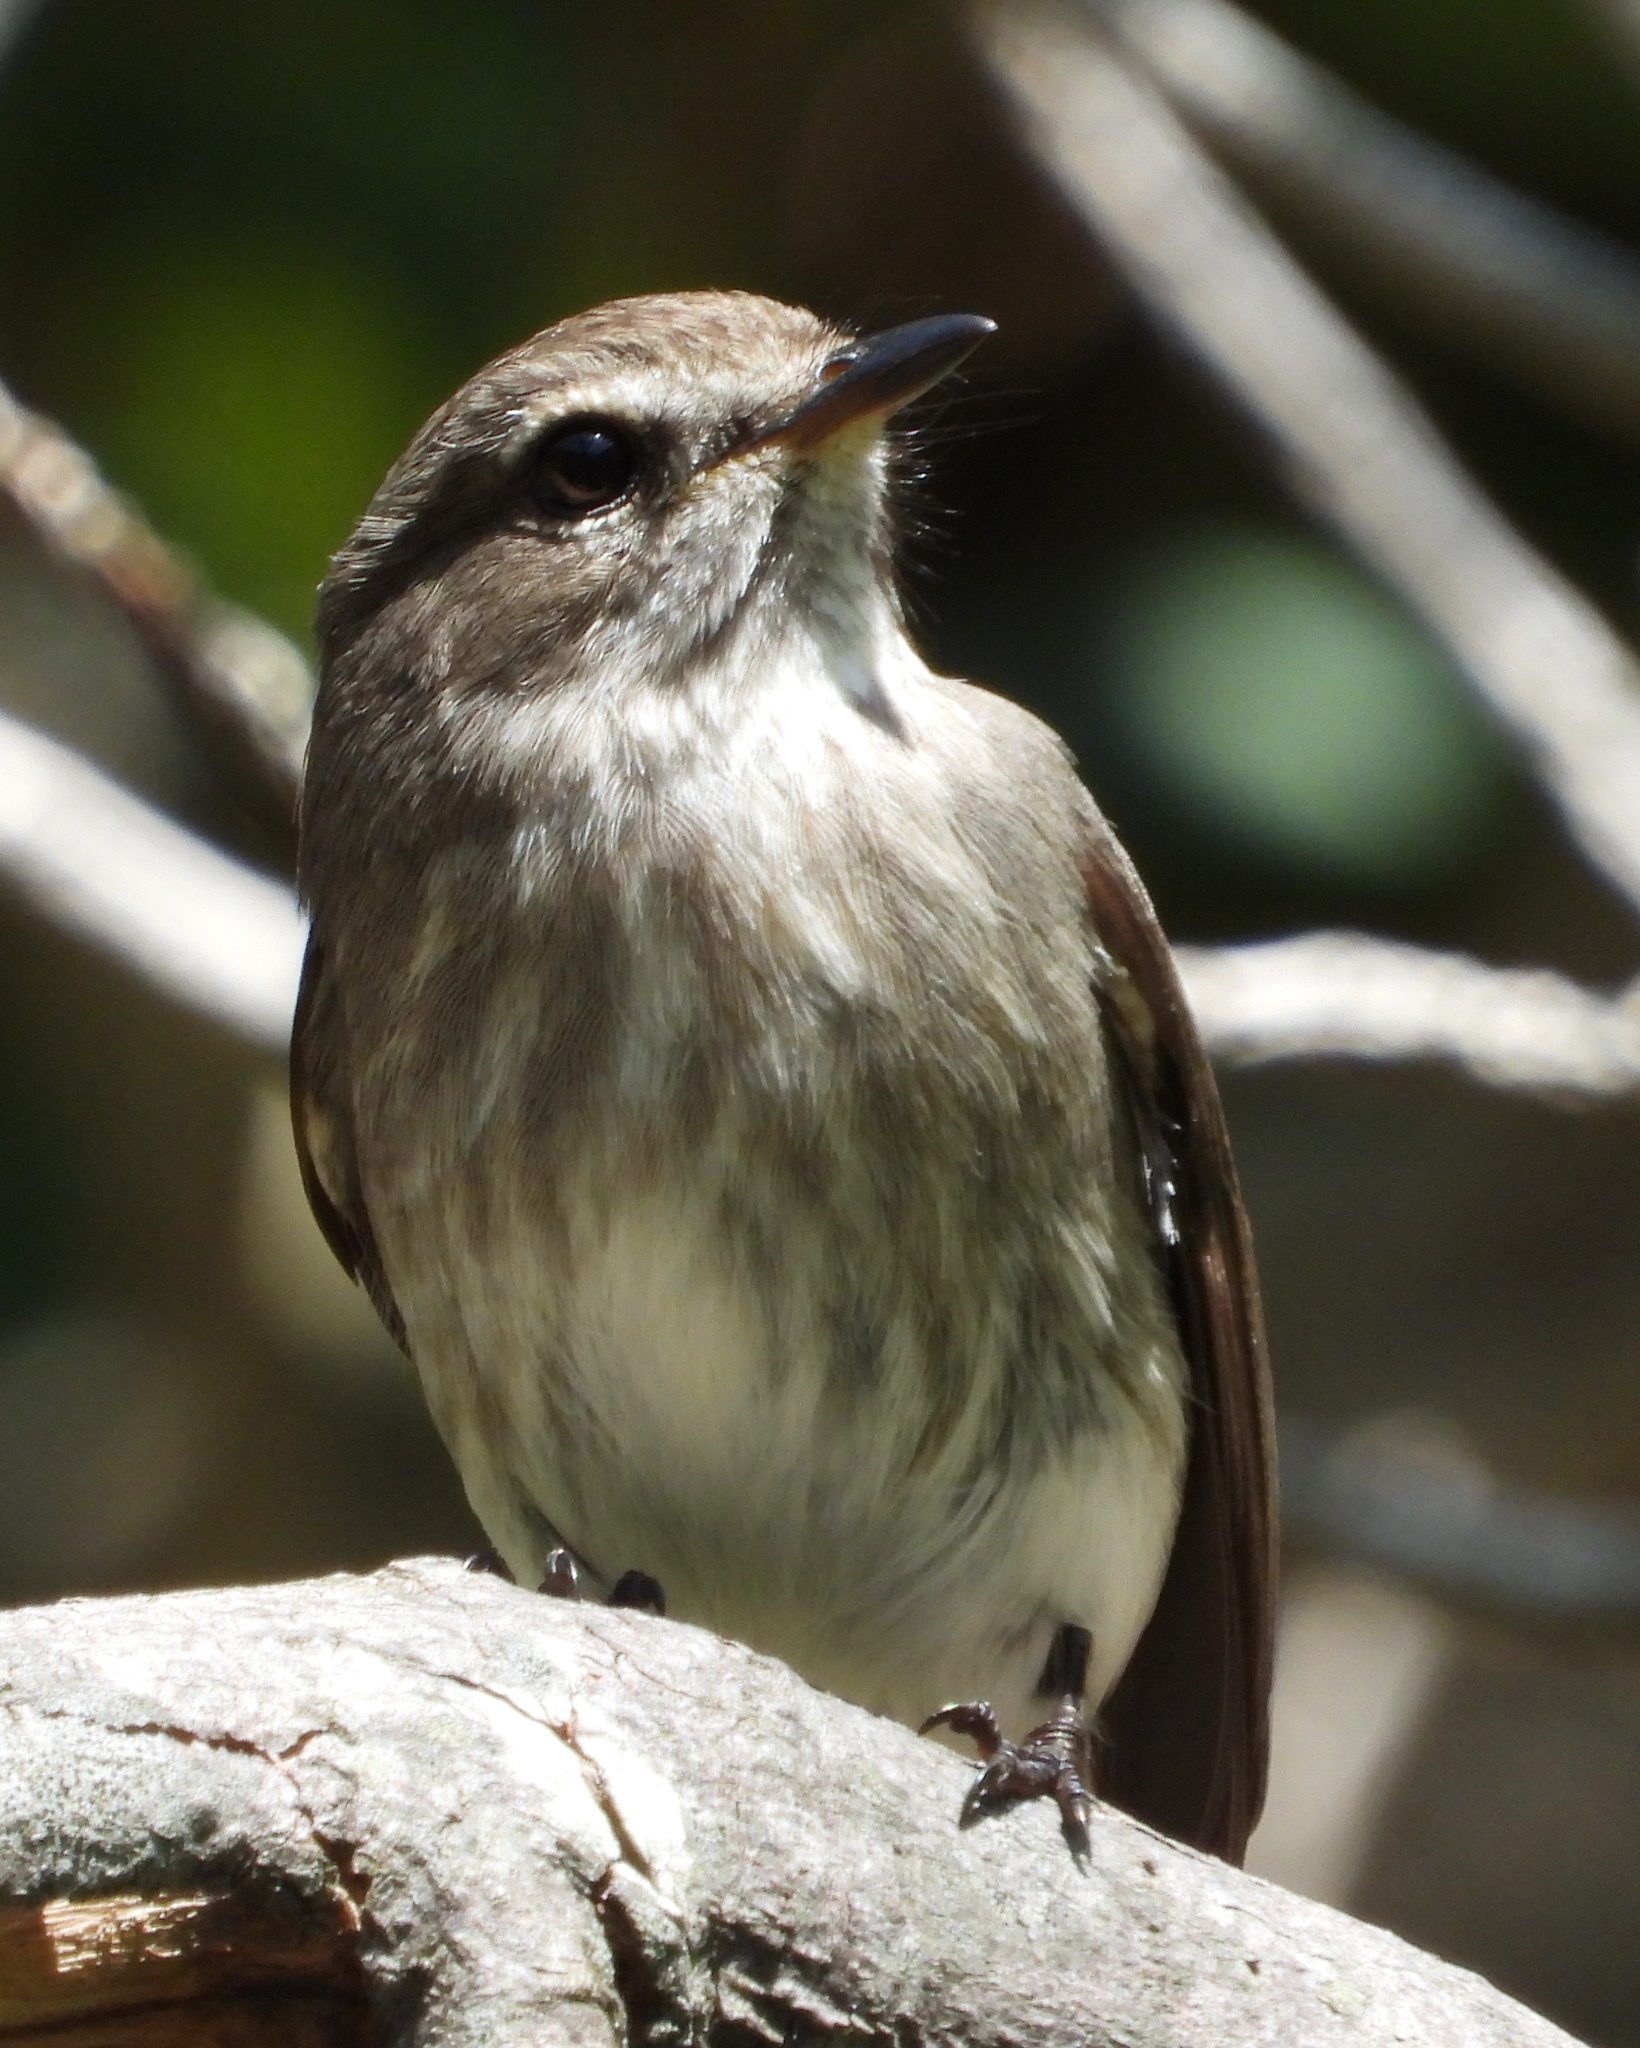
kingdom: Animalia
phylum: Chordata
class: Aves
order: Passeriformes
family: Muscicapidae
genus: Muscicapa
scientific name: Muscicapa adusta
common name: African dusky flycatcher
